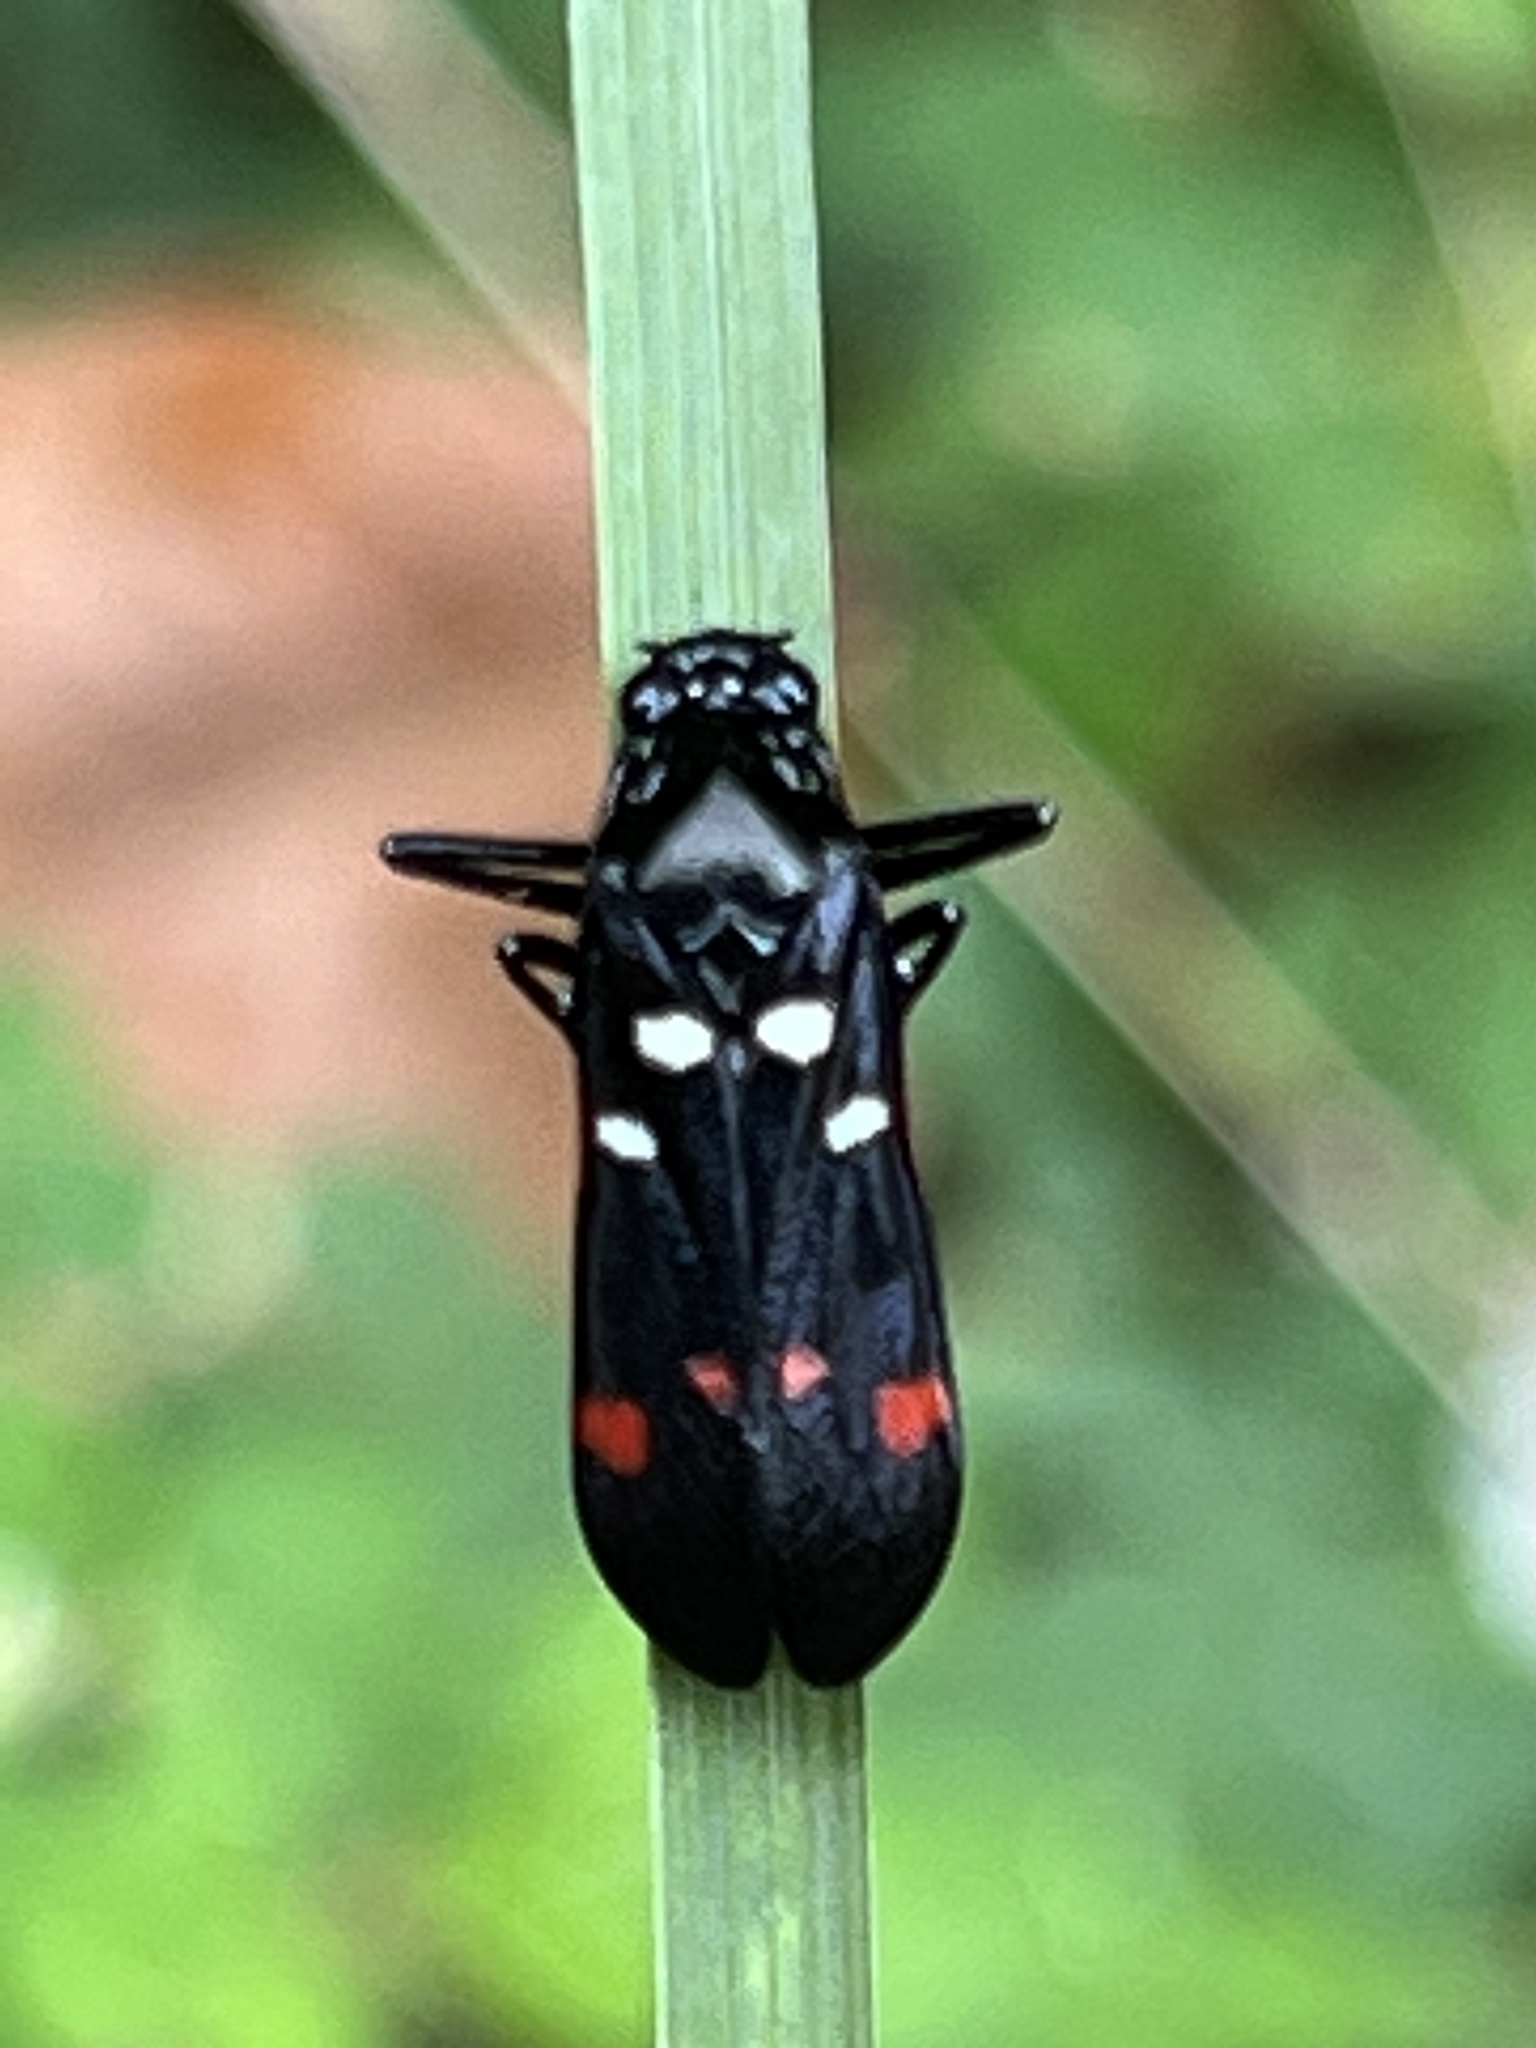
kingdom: Animalia
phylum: Arthropoda
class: Insecta
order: Hemiptera
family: Cercopidae
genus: Callitettix
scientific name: Callitettix versicolor
